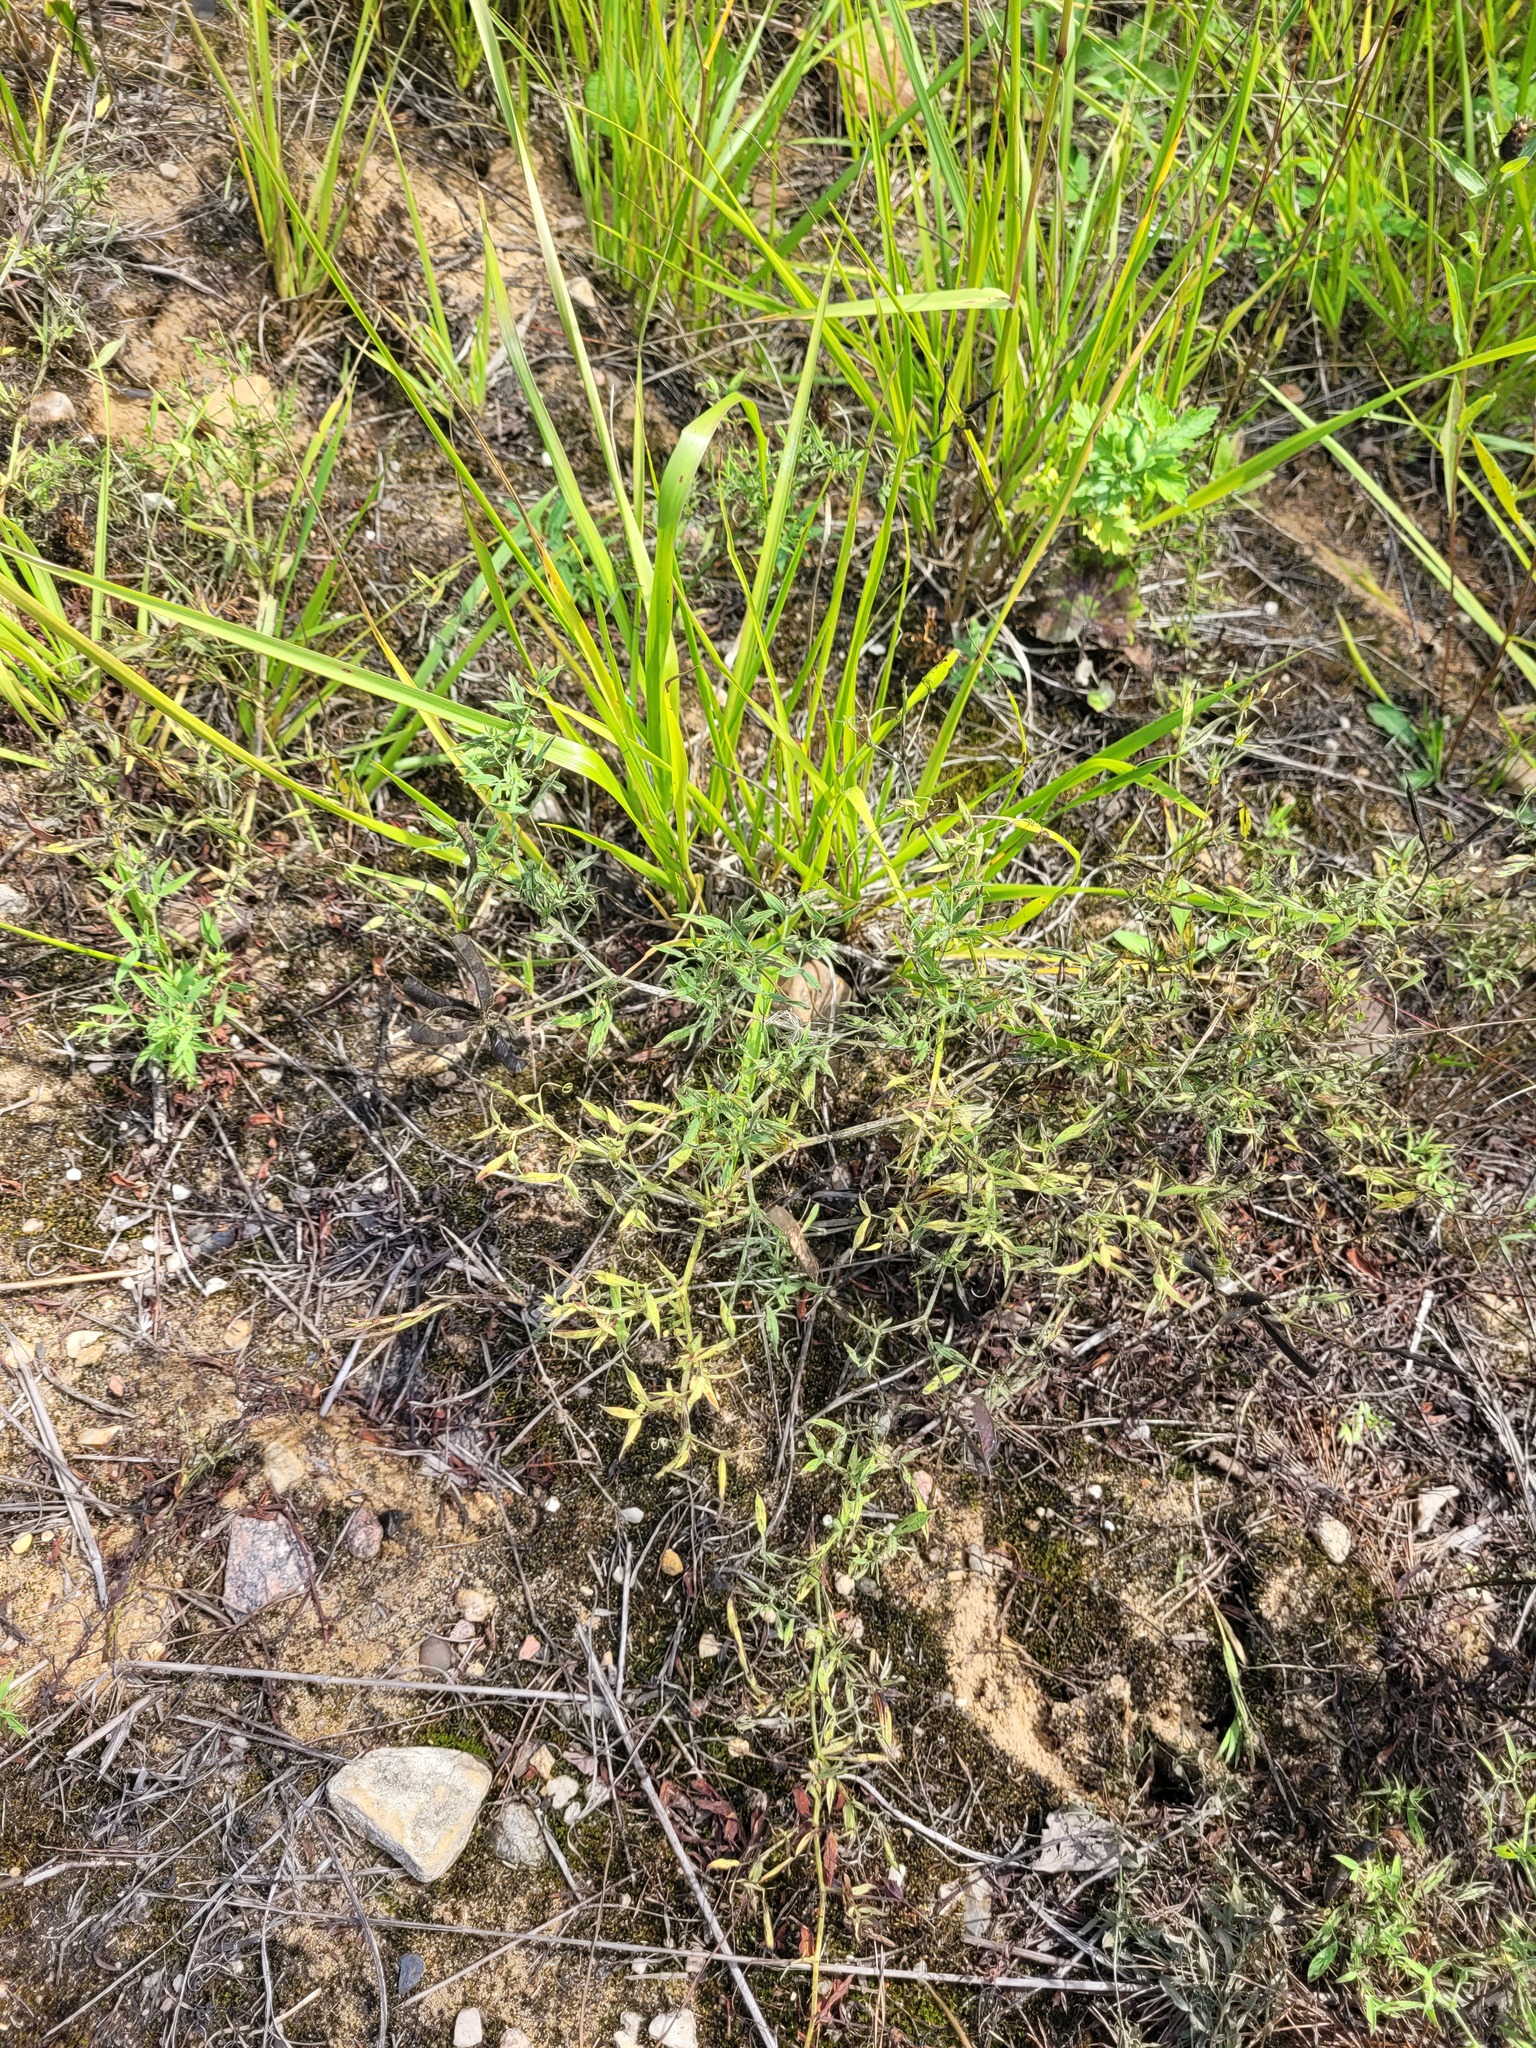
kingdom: Plantae
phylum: Tracheophyta
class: Magnoliopsida
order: Fabales
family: Fabaceae
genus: Lathyrus
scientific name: Lathyrus pratensis
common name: Meadow vetchling
